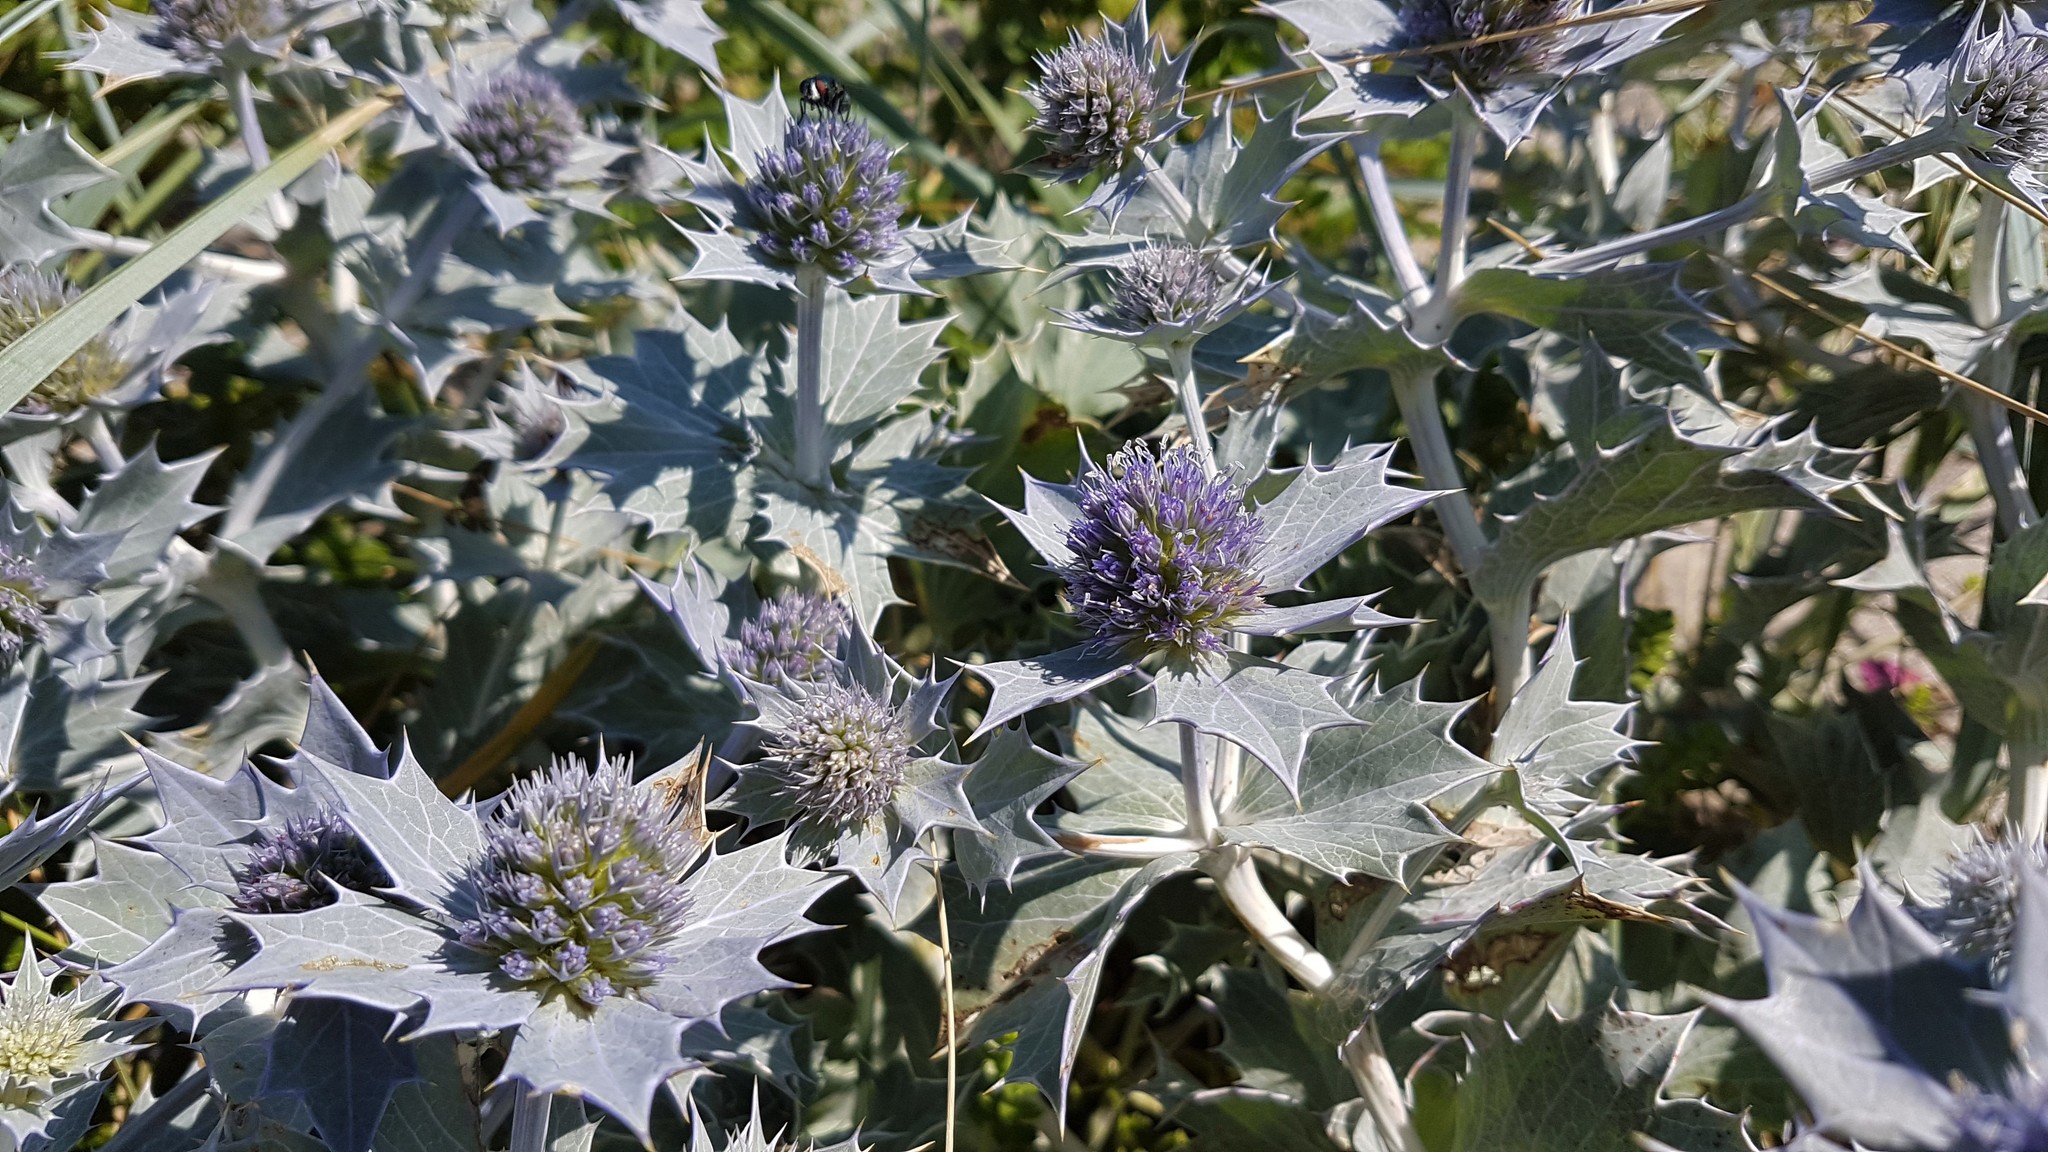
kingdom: Plantae
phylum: Tracheophyta
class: Magnoliopsida
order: Apiales
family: Apiaceae
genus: Eryngium
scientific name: Eryngium maritimum
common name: Sea-holly
